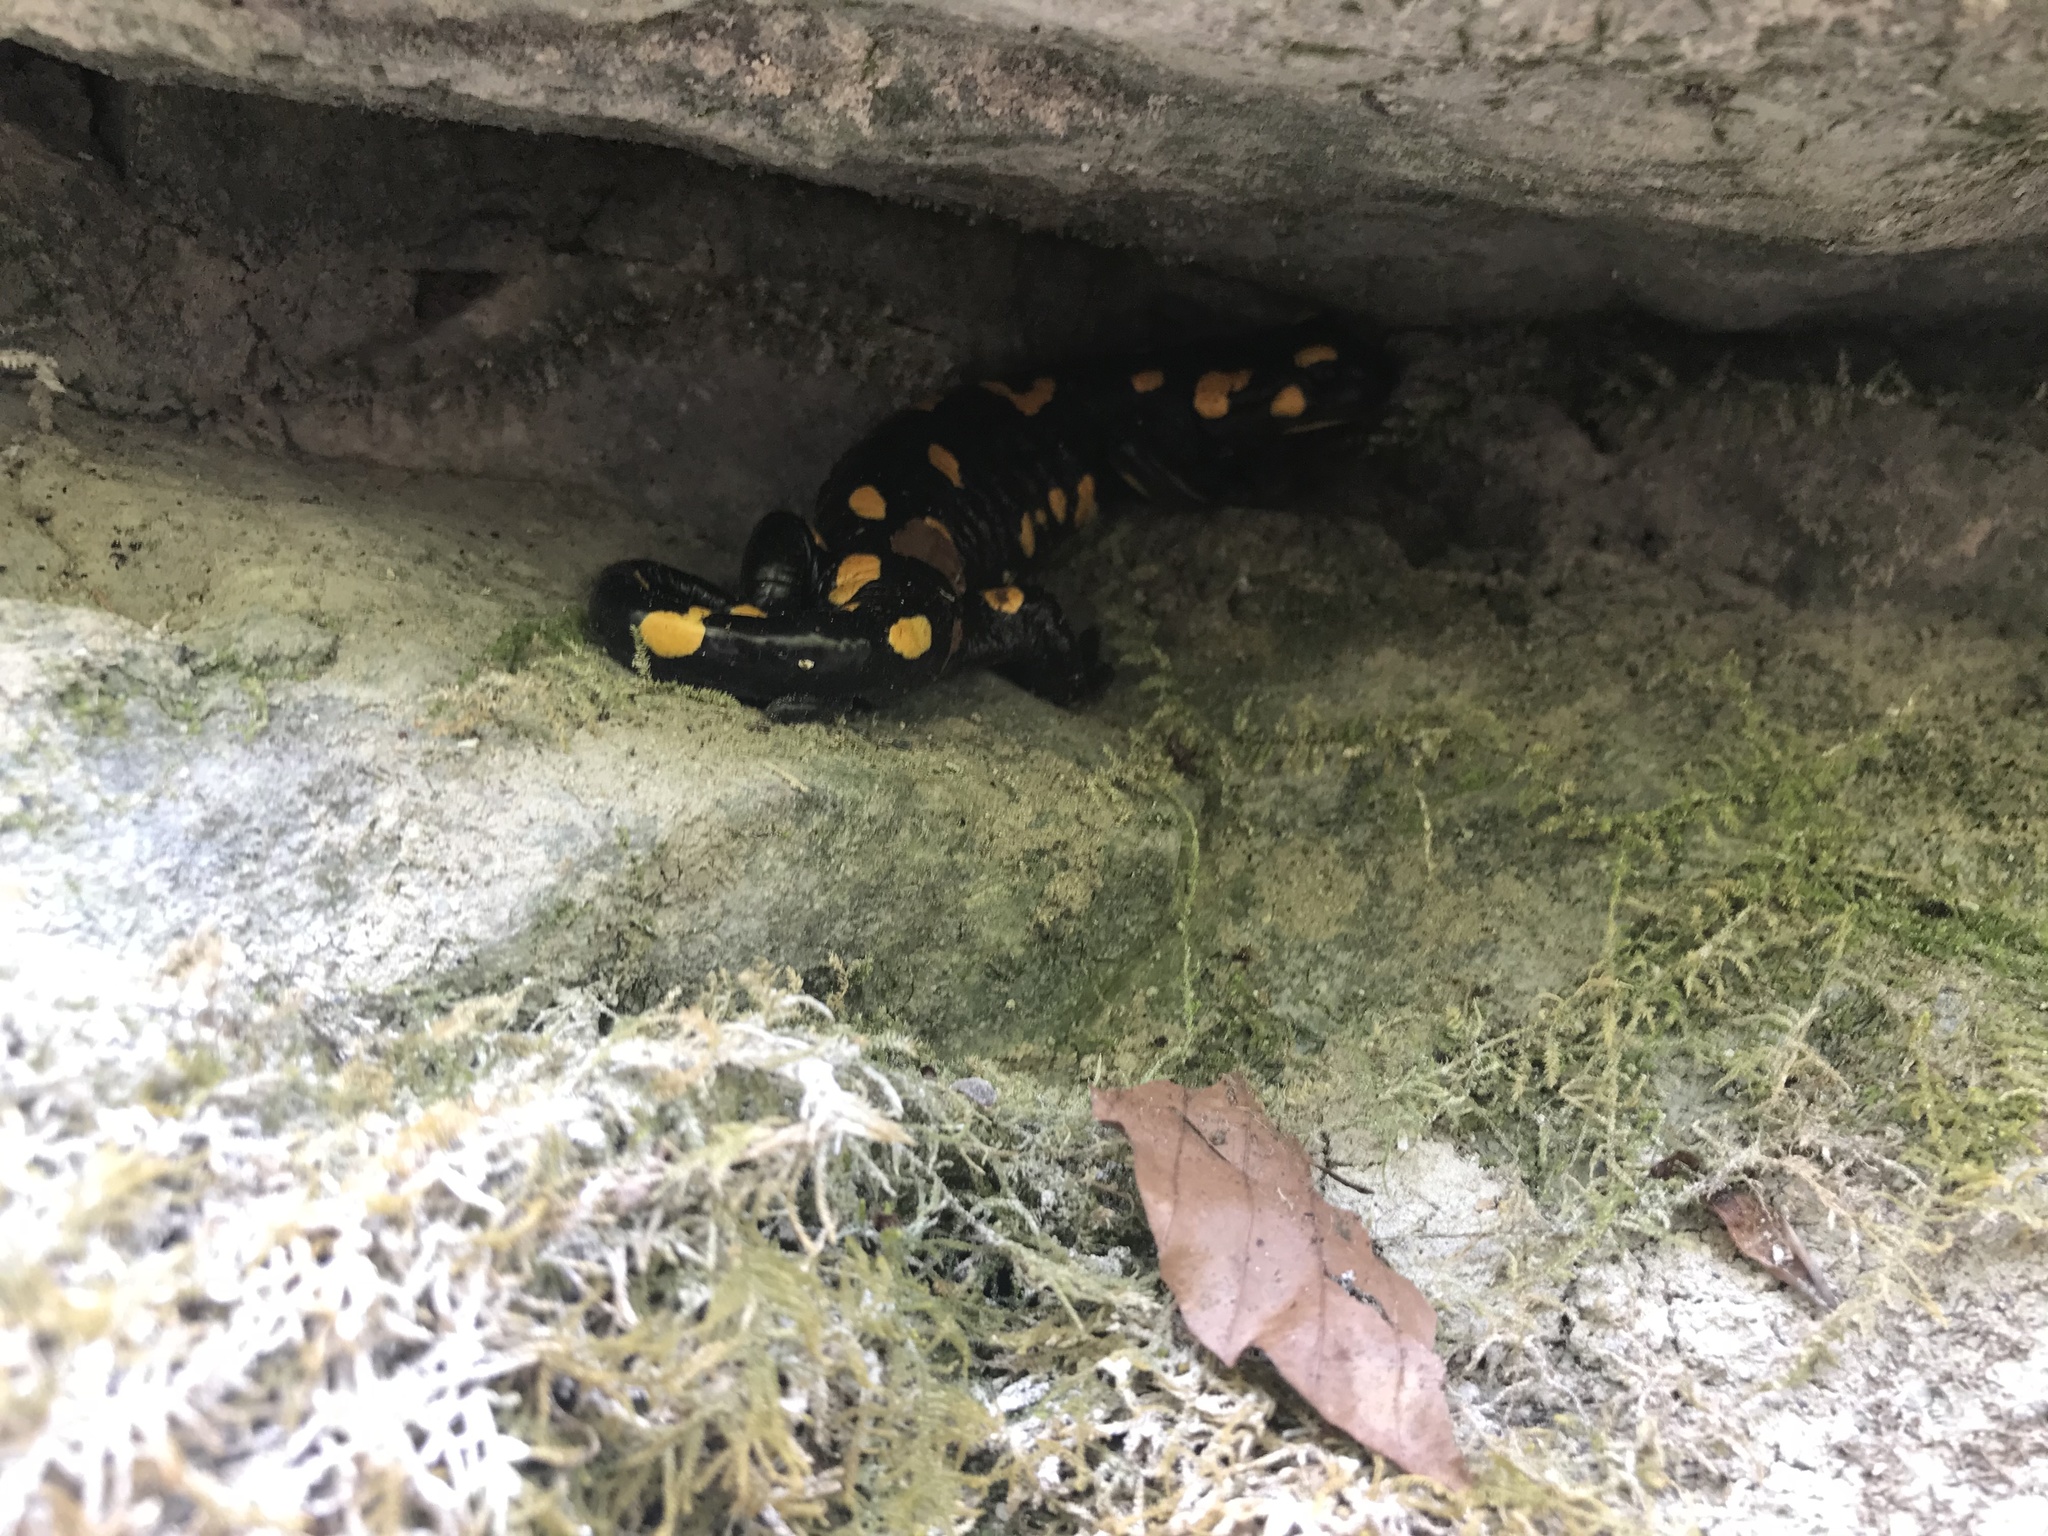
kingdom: Animalia
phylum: Chordata
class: Amphibia
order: Caudata
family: Salamandridae
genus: Salamandra
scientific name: Salamandra salamandra
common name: Fire salamander
